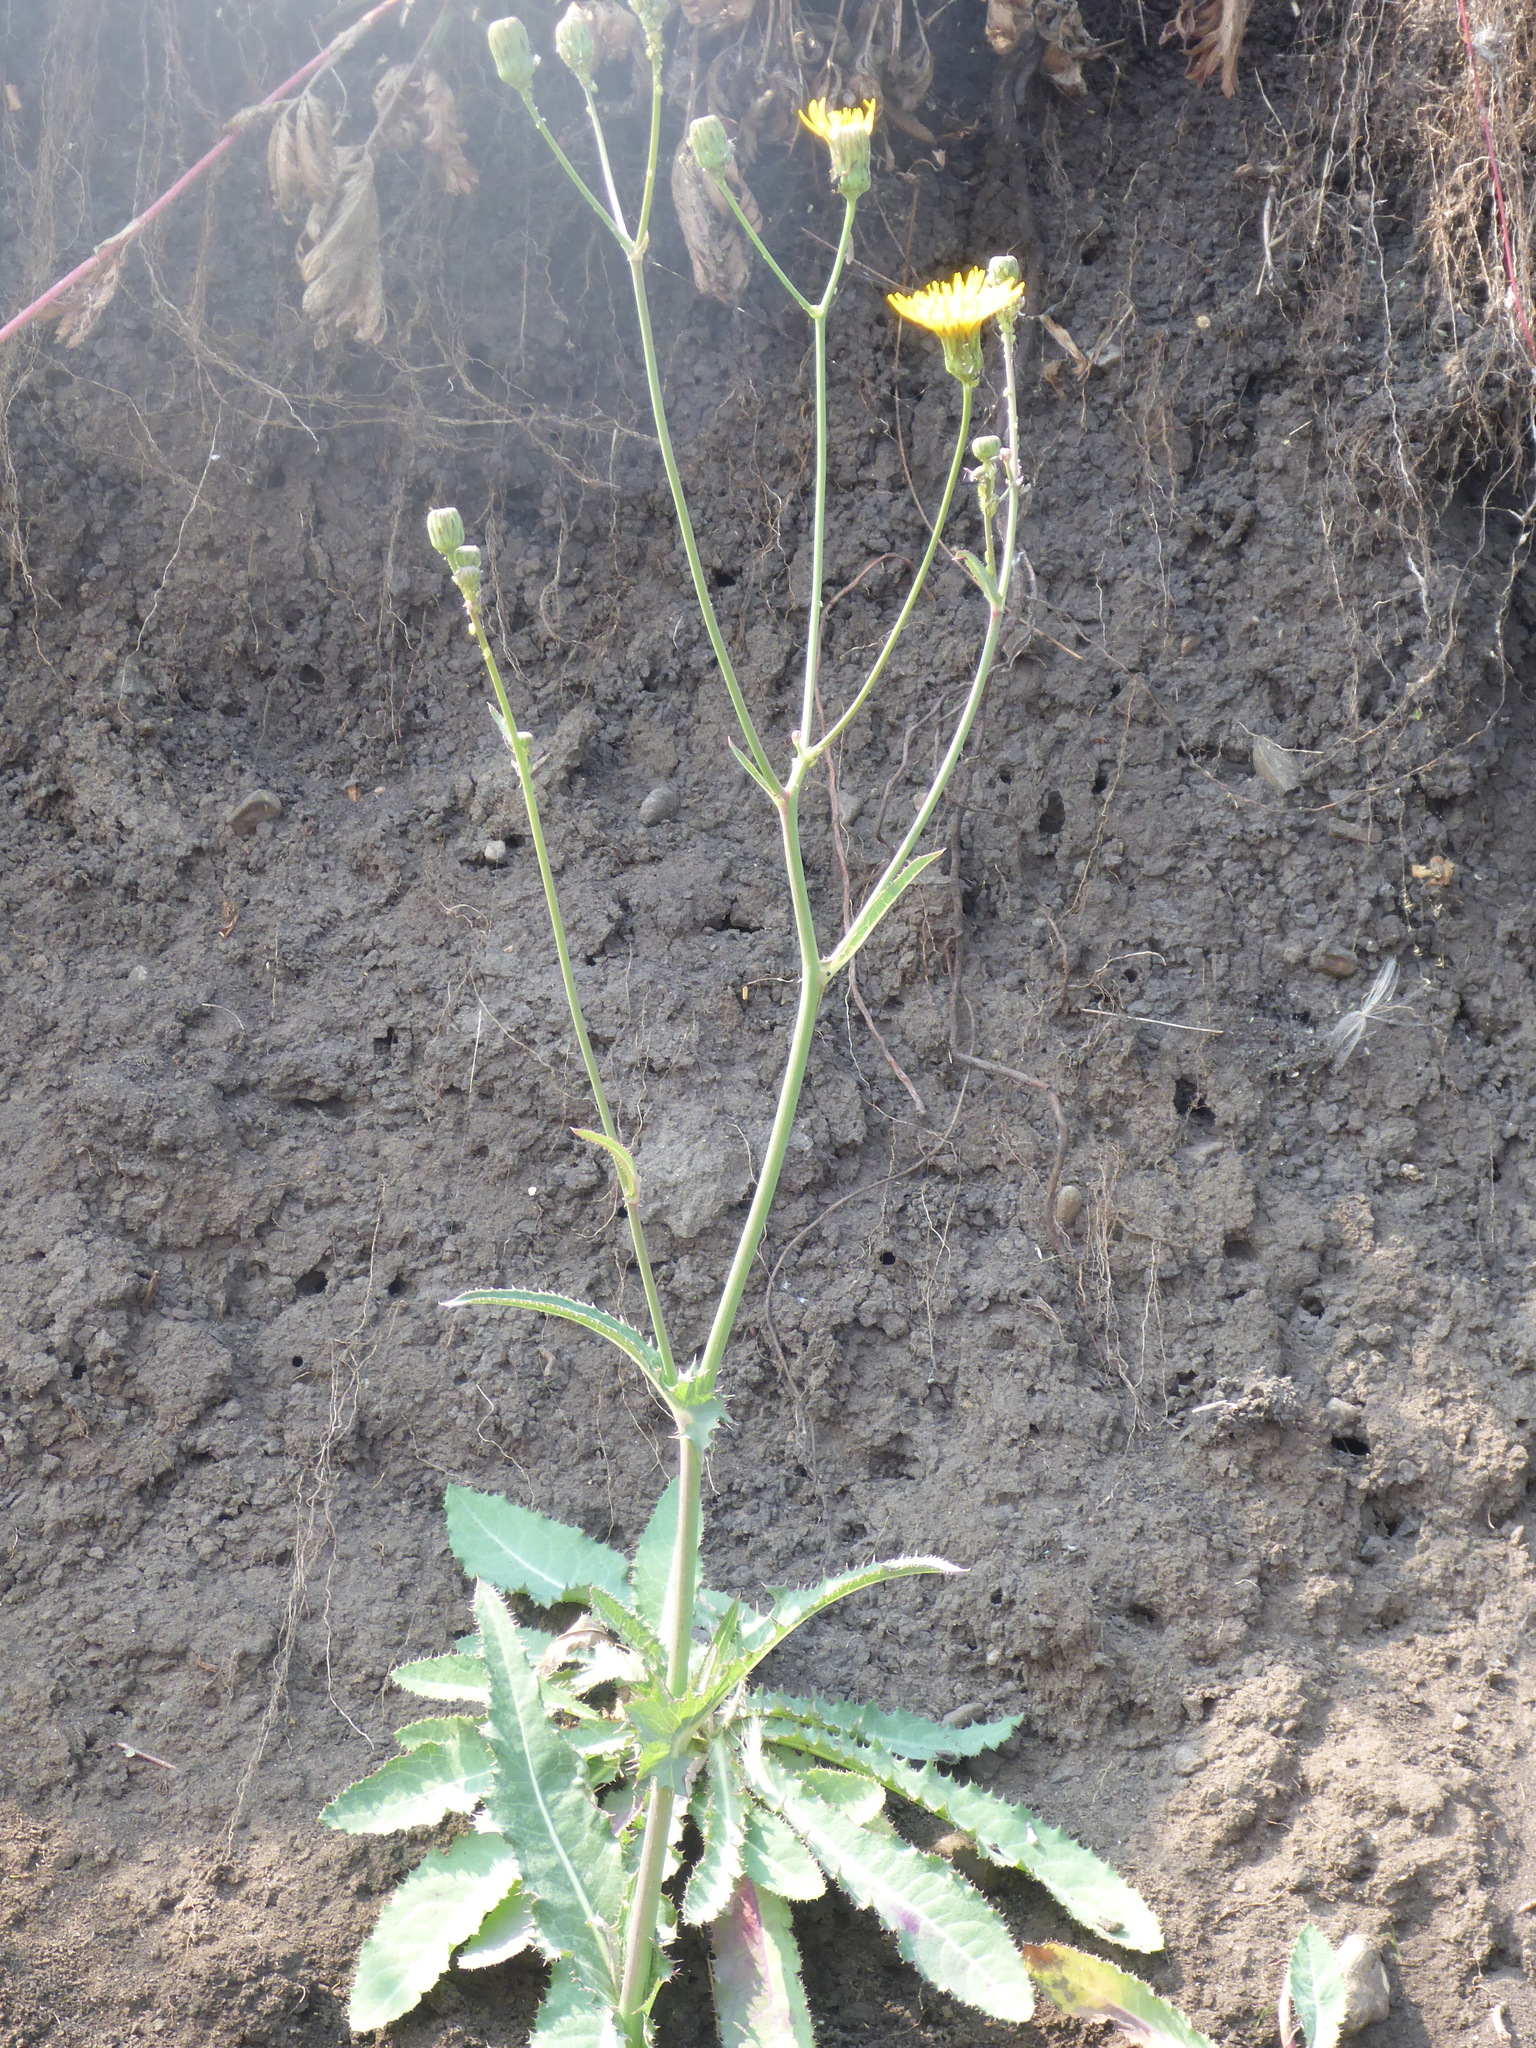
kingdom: Plantae
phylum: Tracheophyta
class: Magnoliopsida
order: Asterales
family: Asteraceae
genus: Sonchus
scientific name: Sonchus arvensis
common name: Perennial sow-thistle
